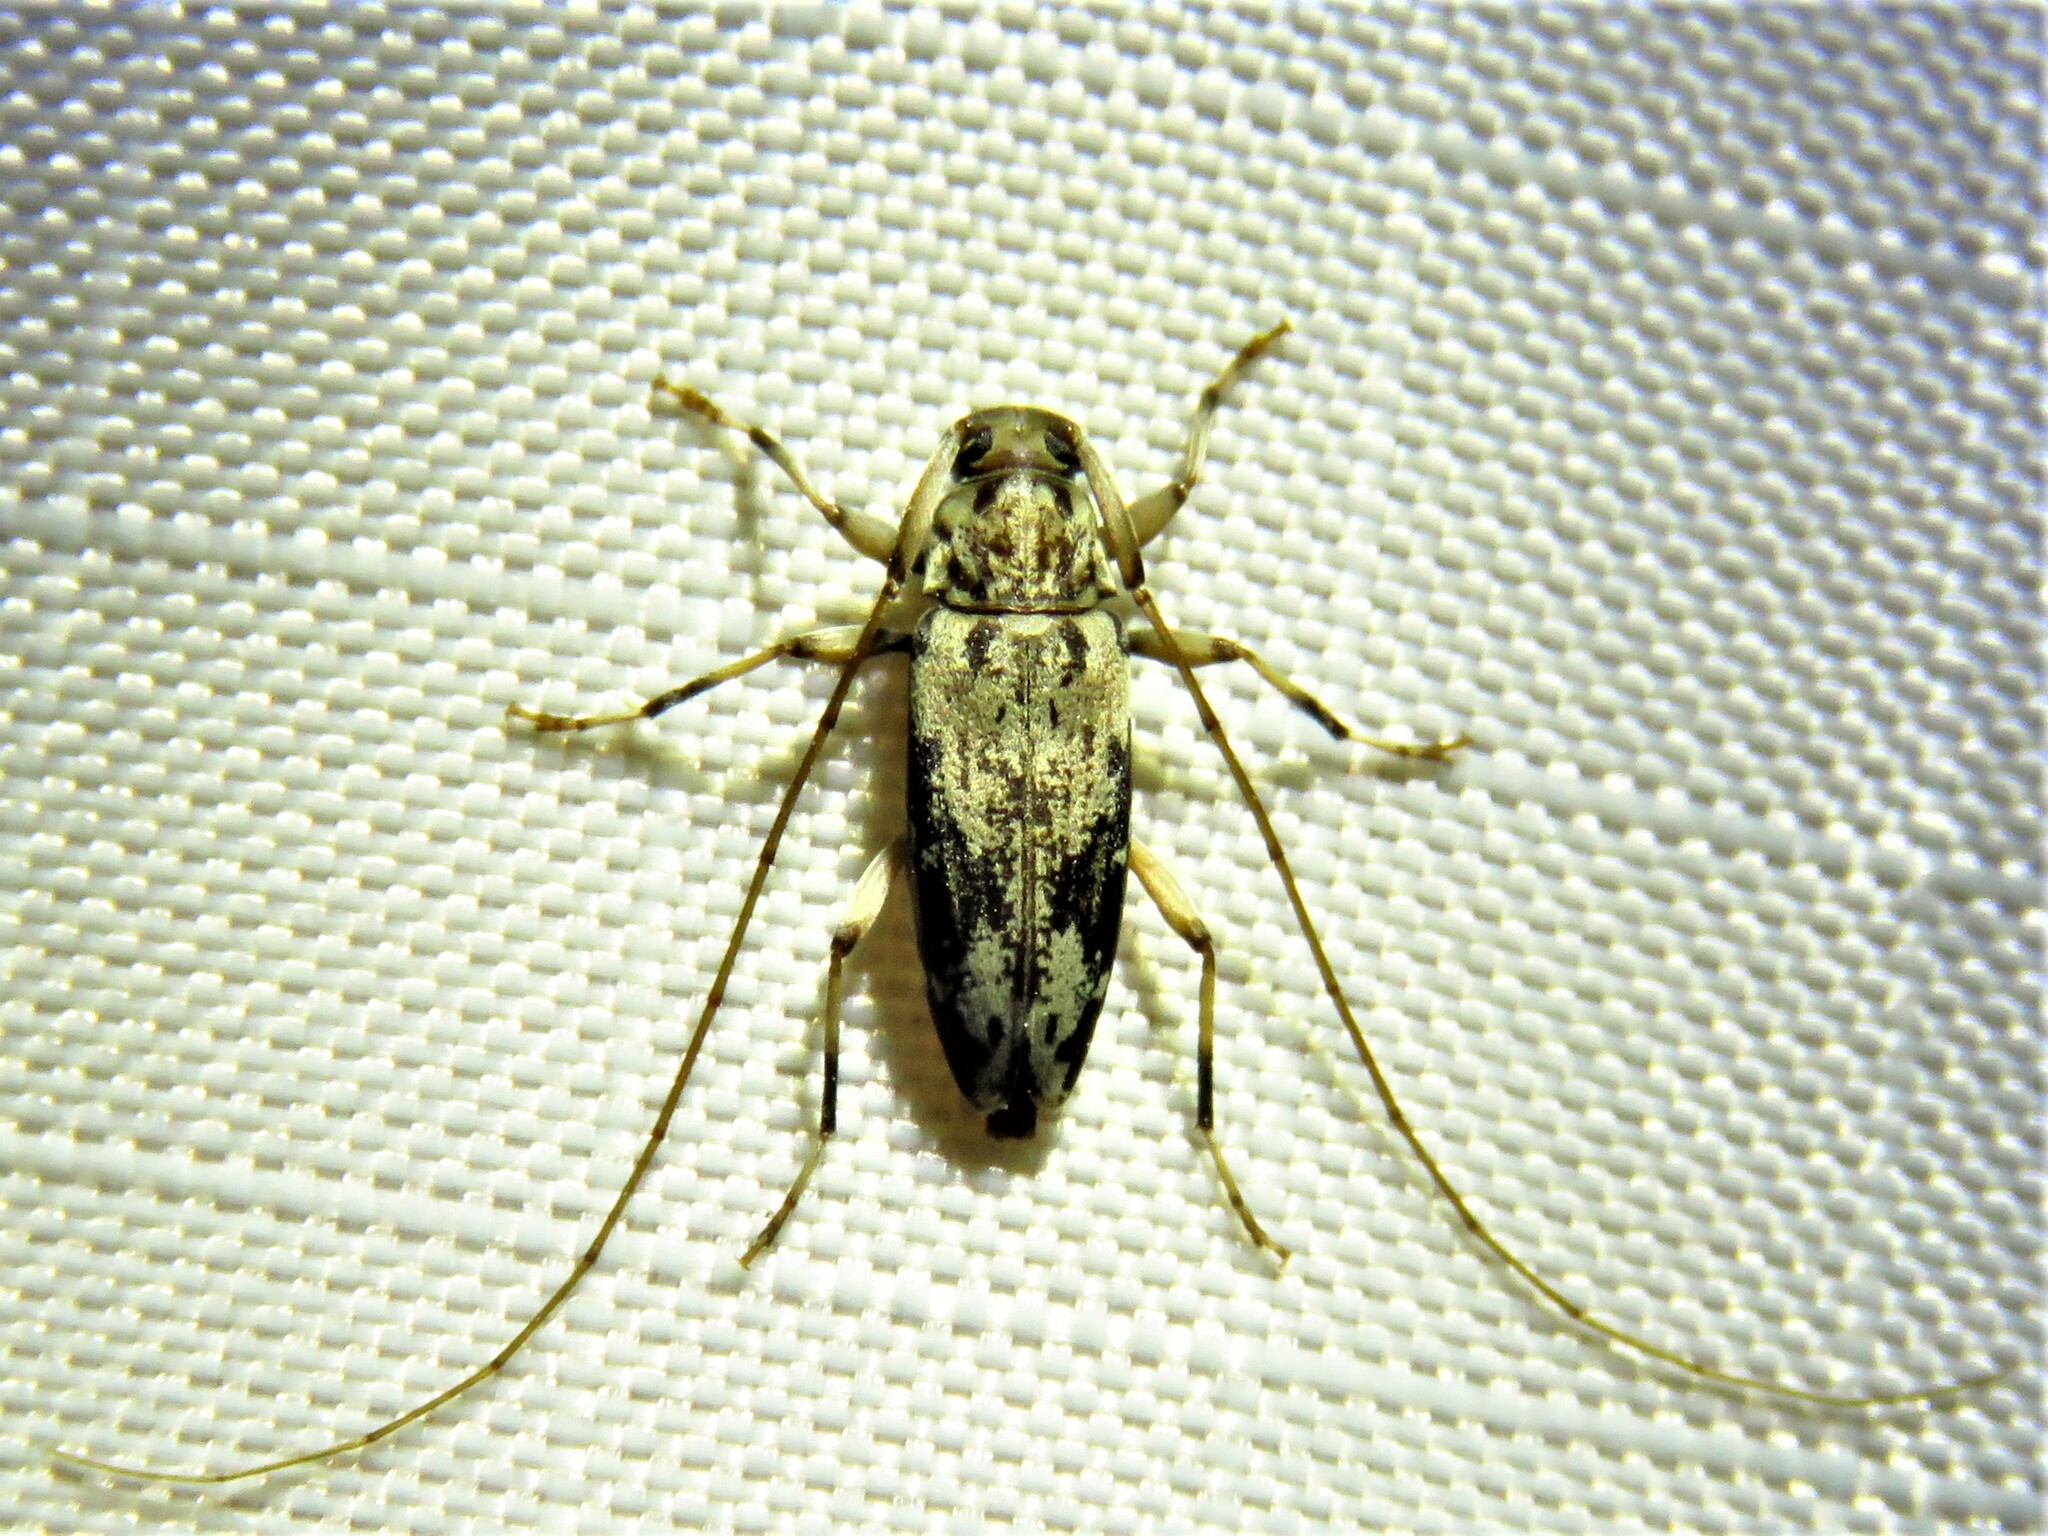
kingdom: Animalia
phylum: Arthropoda
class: Insecta
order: Coleoptera
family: Cerambycidae
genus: Lepturges
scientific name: Lepturges angulatus
